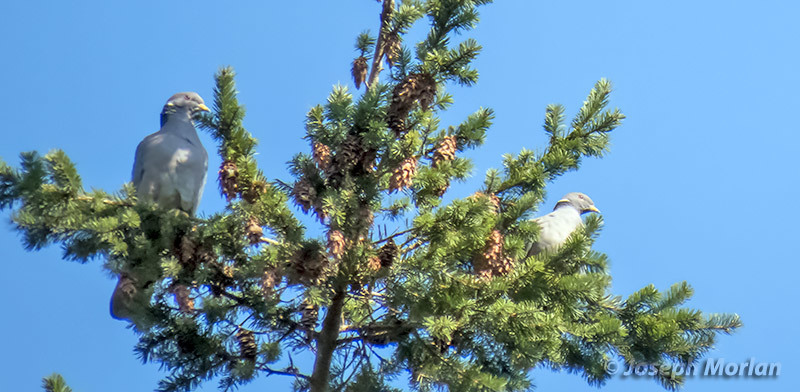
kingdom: Animalia
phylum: Chordata
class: Aves
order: Columbiformes
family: Columbidae
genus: Patagioenas
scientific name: Patagioenas fasciata
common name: Band-tailed pigeon
